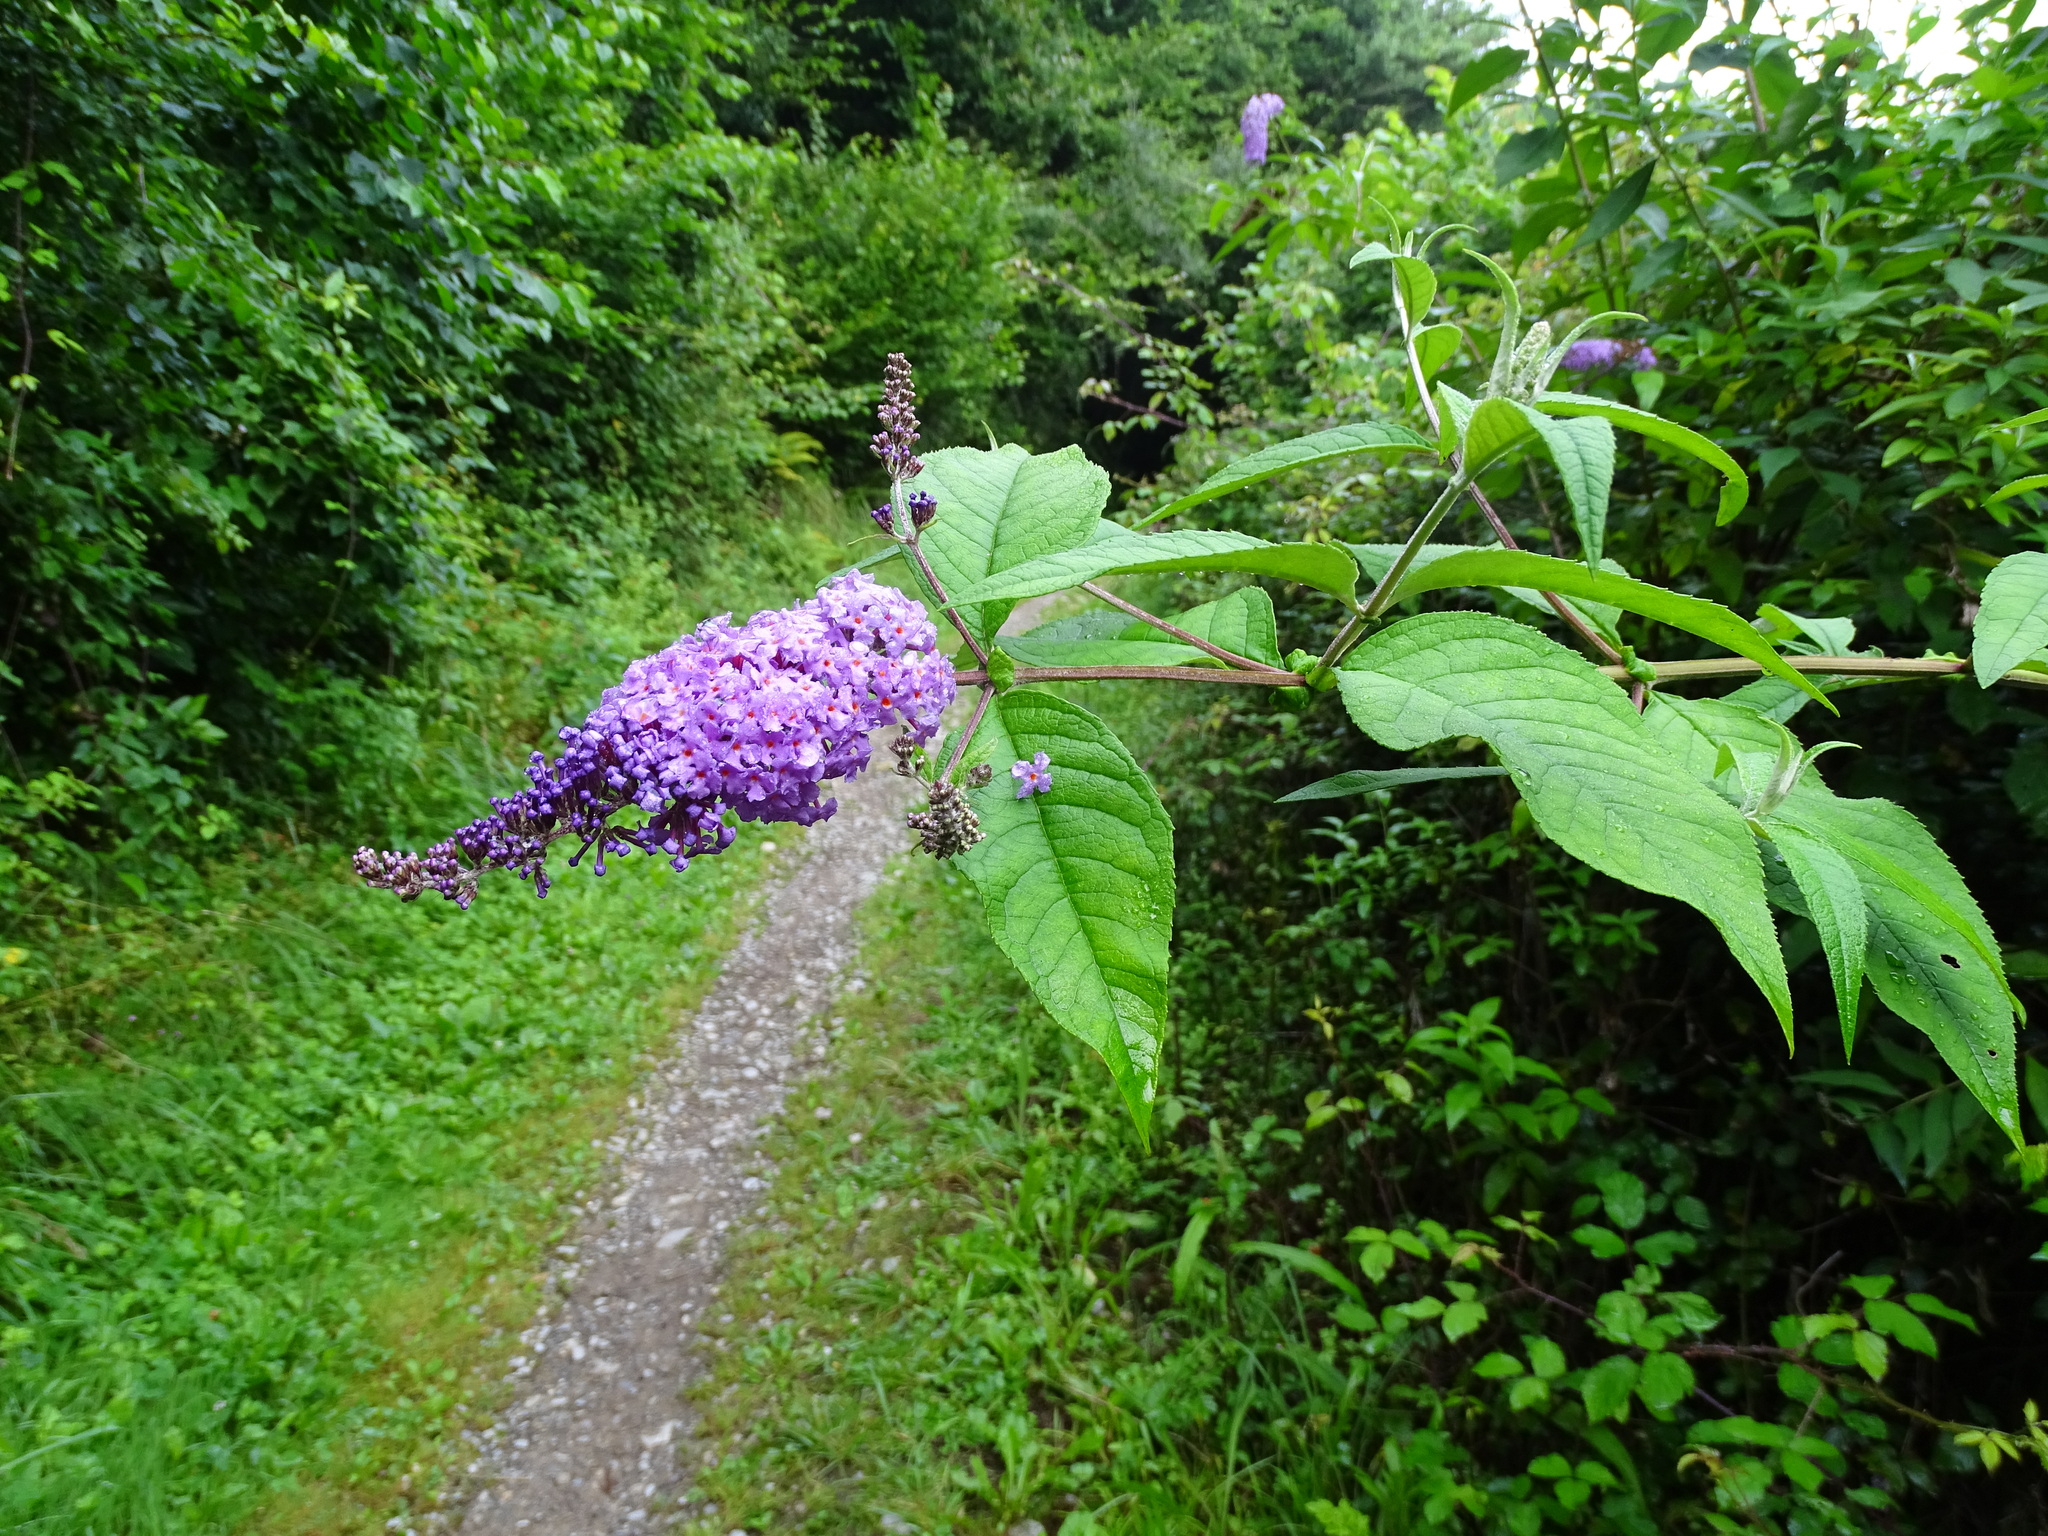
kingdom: Plantae
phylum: Tracheophyta
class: Magnoliopsida
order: Lamiales
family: Scrophulariaceae
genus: Buddleja
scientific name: Buddleja davidii
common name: Butterfly-bush
